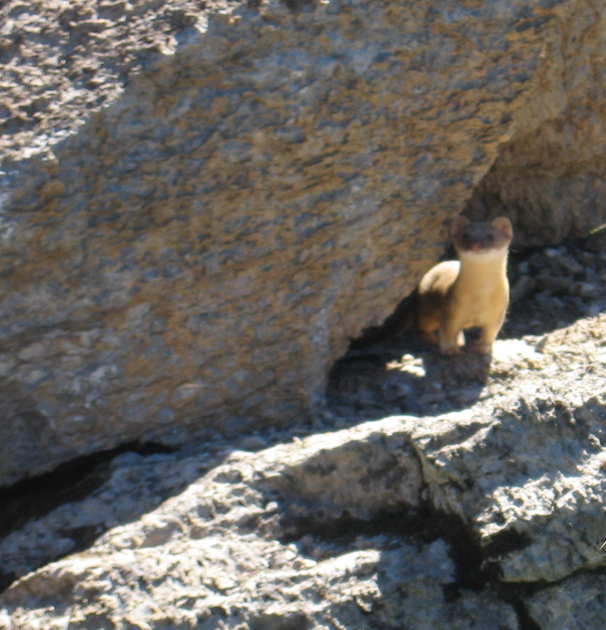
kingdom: Animalia
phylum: Chordata
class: Mammalia
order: Carnivora
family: Mustelidae
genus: Mustela
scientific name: Mustela
